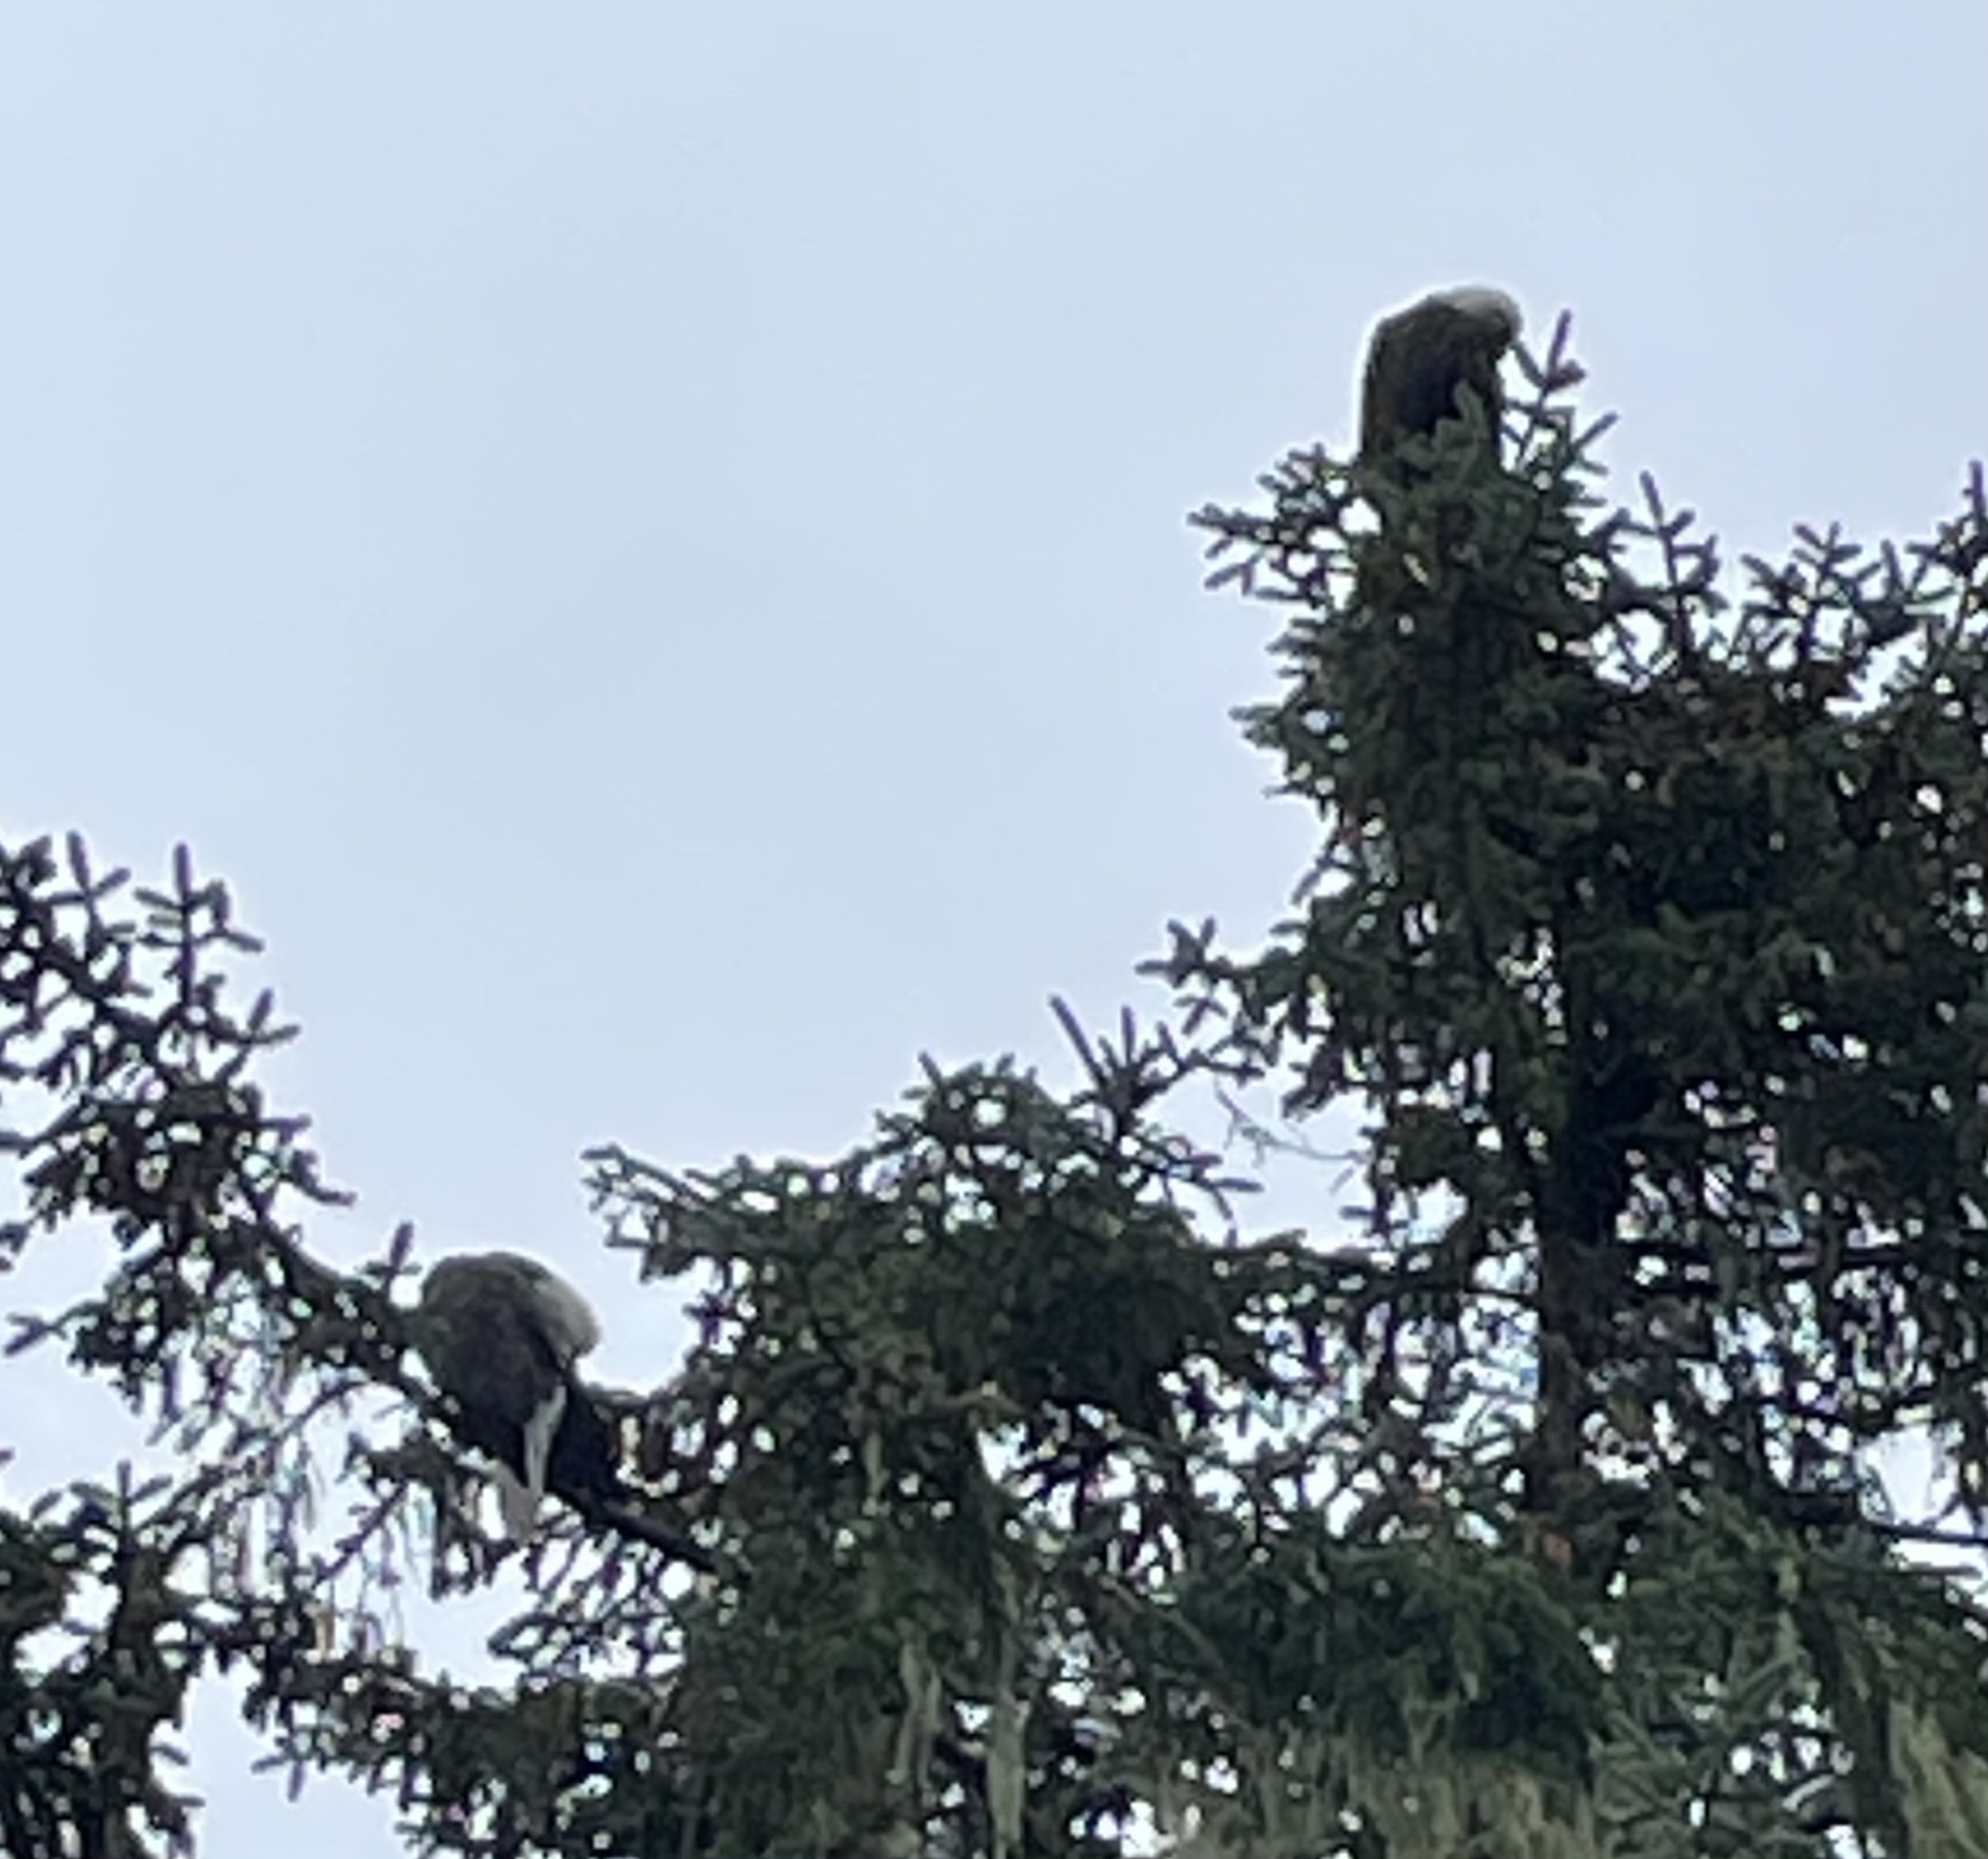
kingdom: Animalia
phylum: Chordata
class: Aves
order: Accipitriformes
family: Accipitridae
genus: Haliaeetus
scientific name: Haliaeetus leucocephalus
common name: Bald eagle
